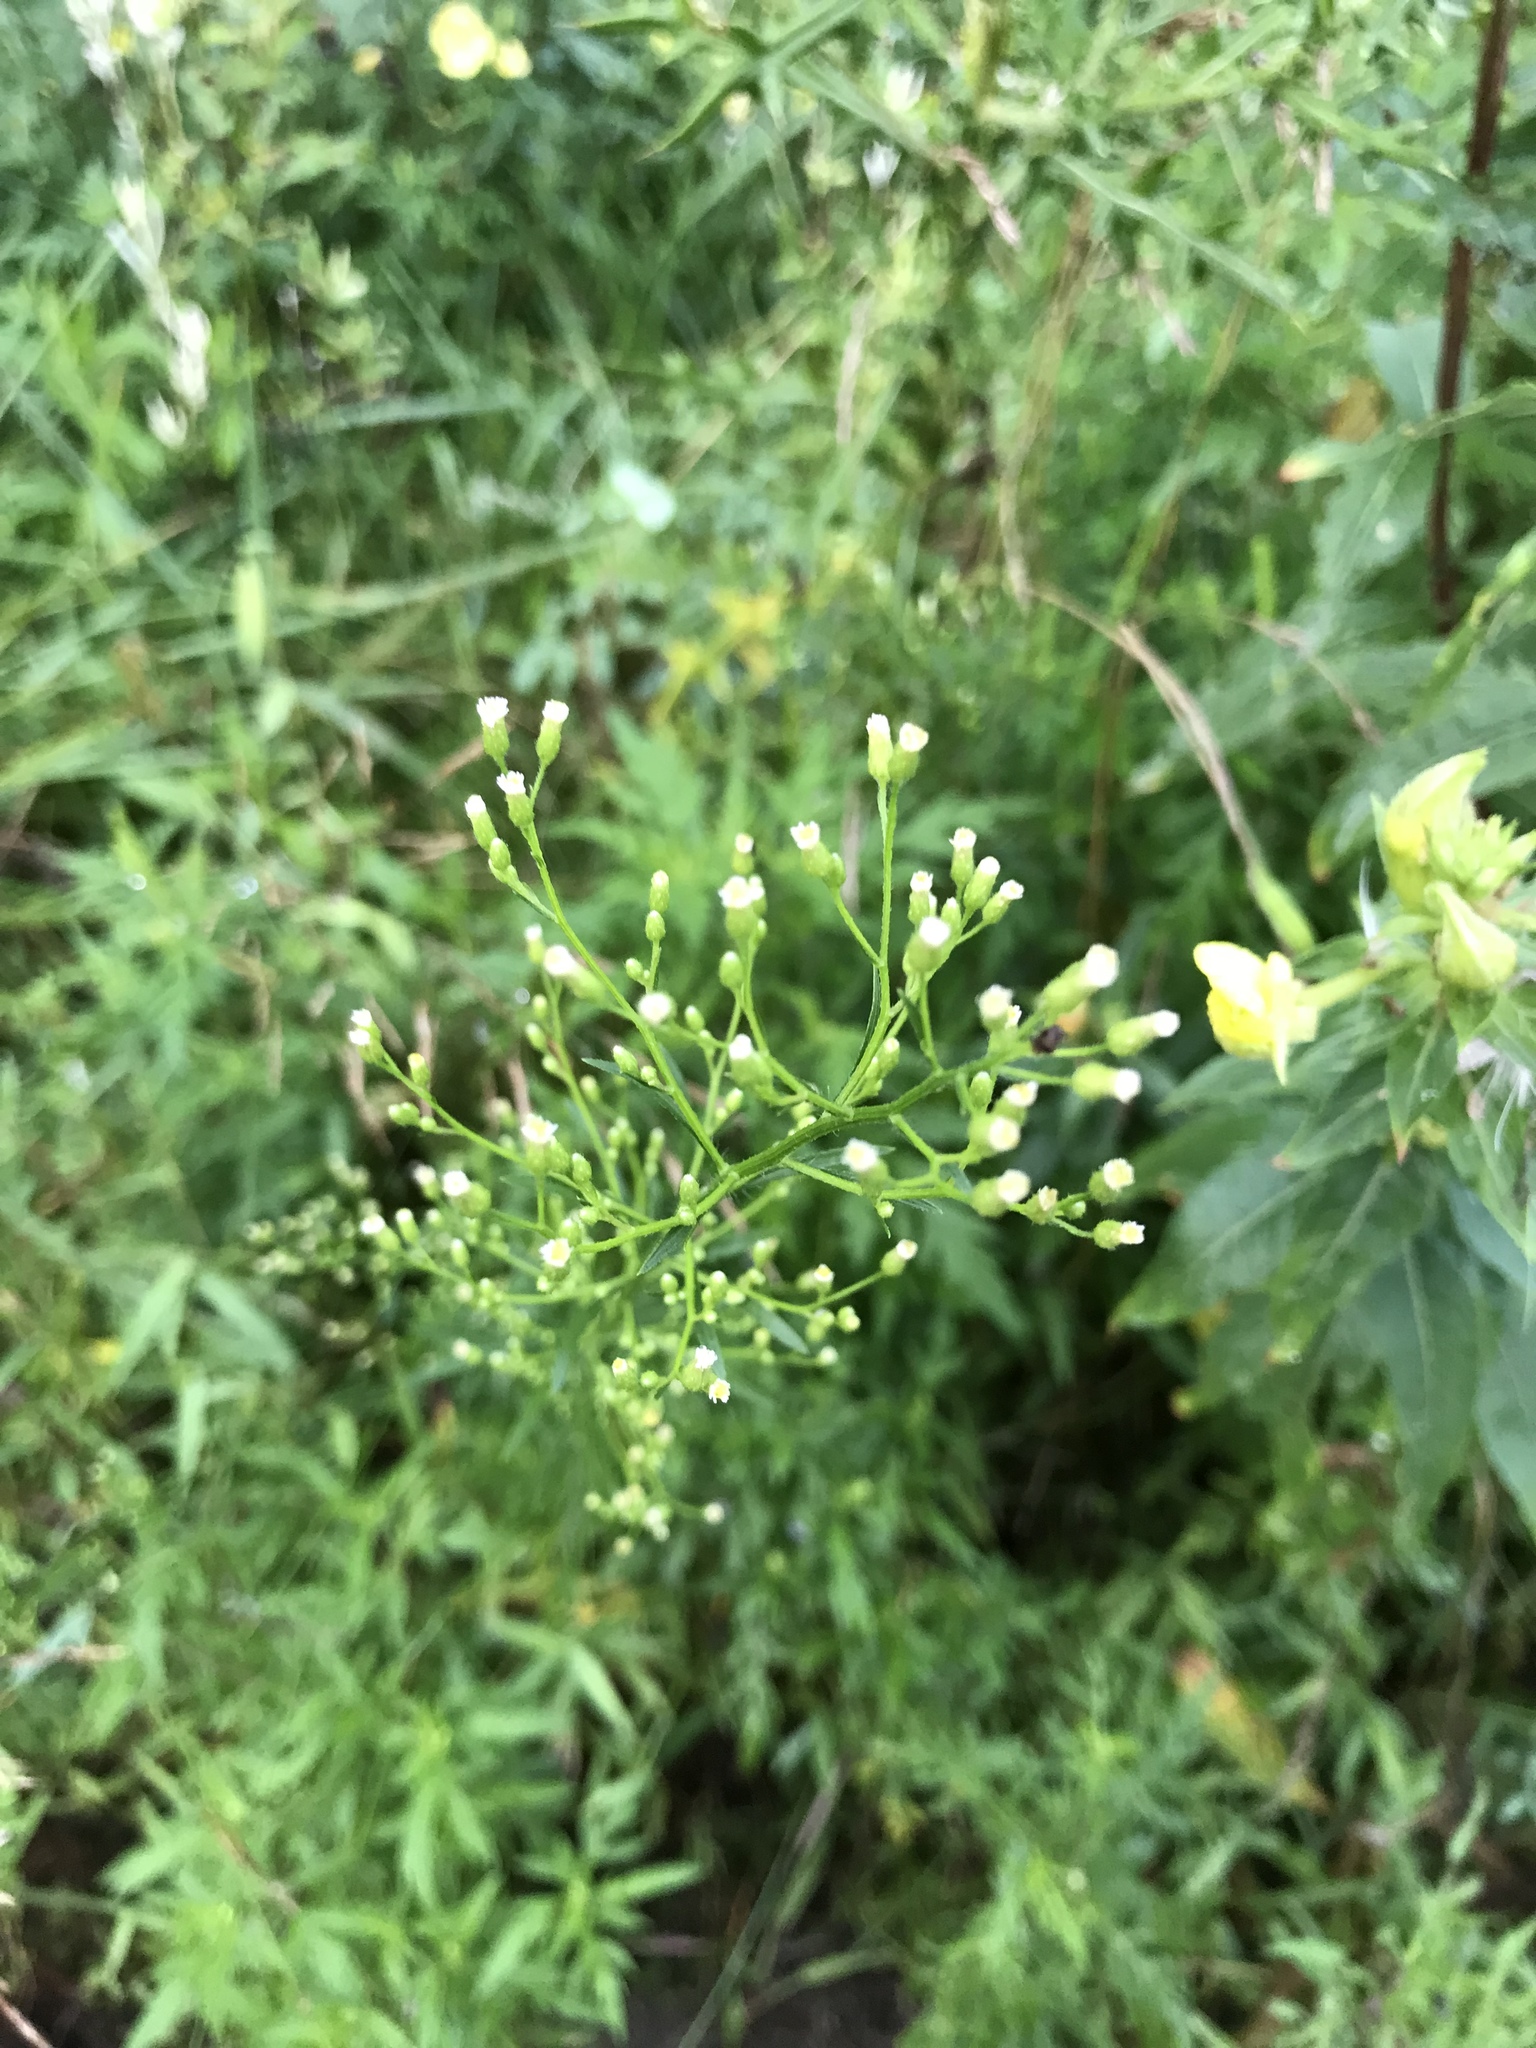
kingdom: Plantae
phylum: Tracheophyta
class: Magnoliopsida
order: Asterales
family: Asteraceae
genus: Erigeron
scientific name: Erigeron canadensis
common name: Canadian fleabane
